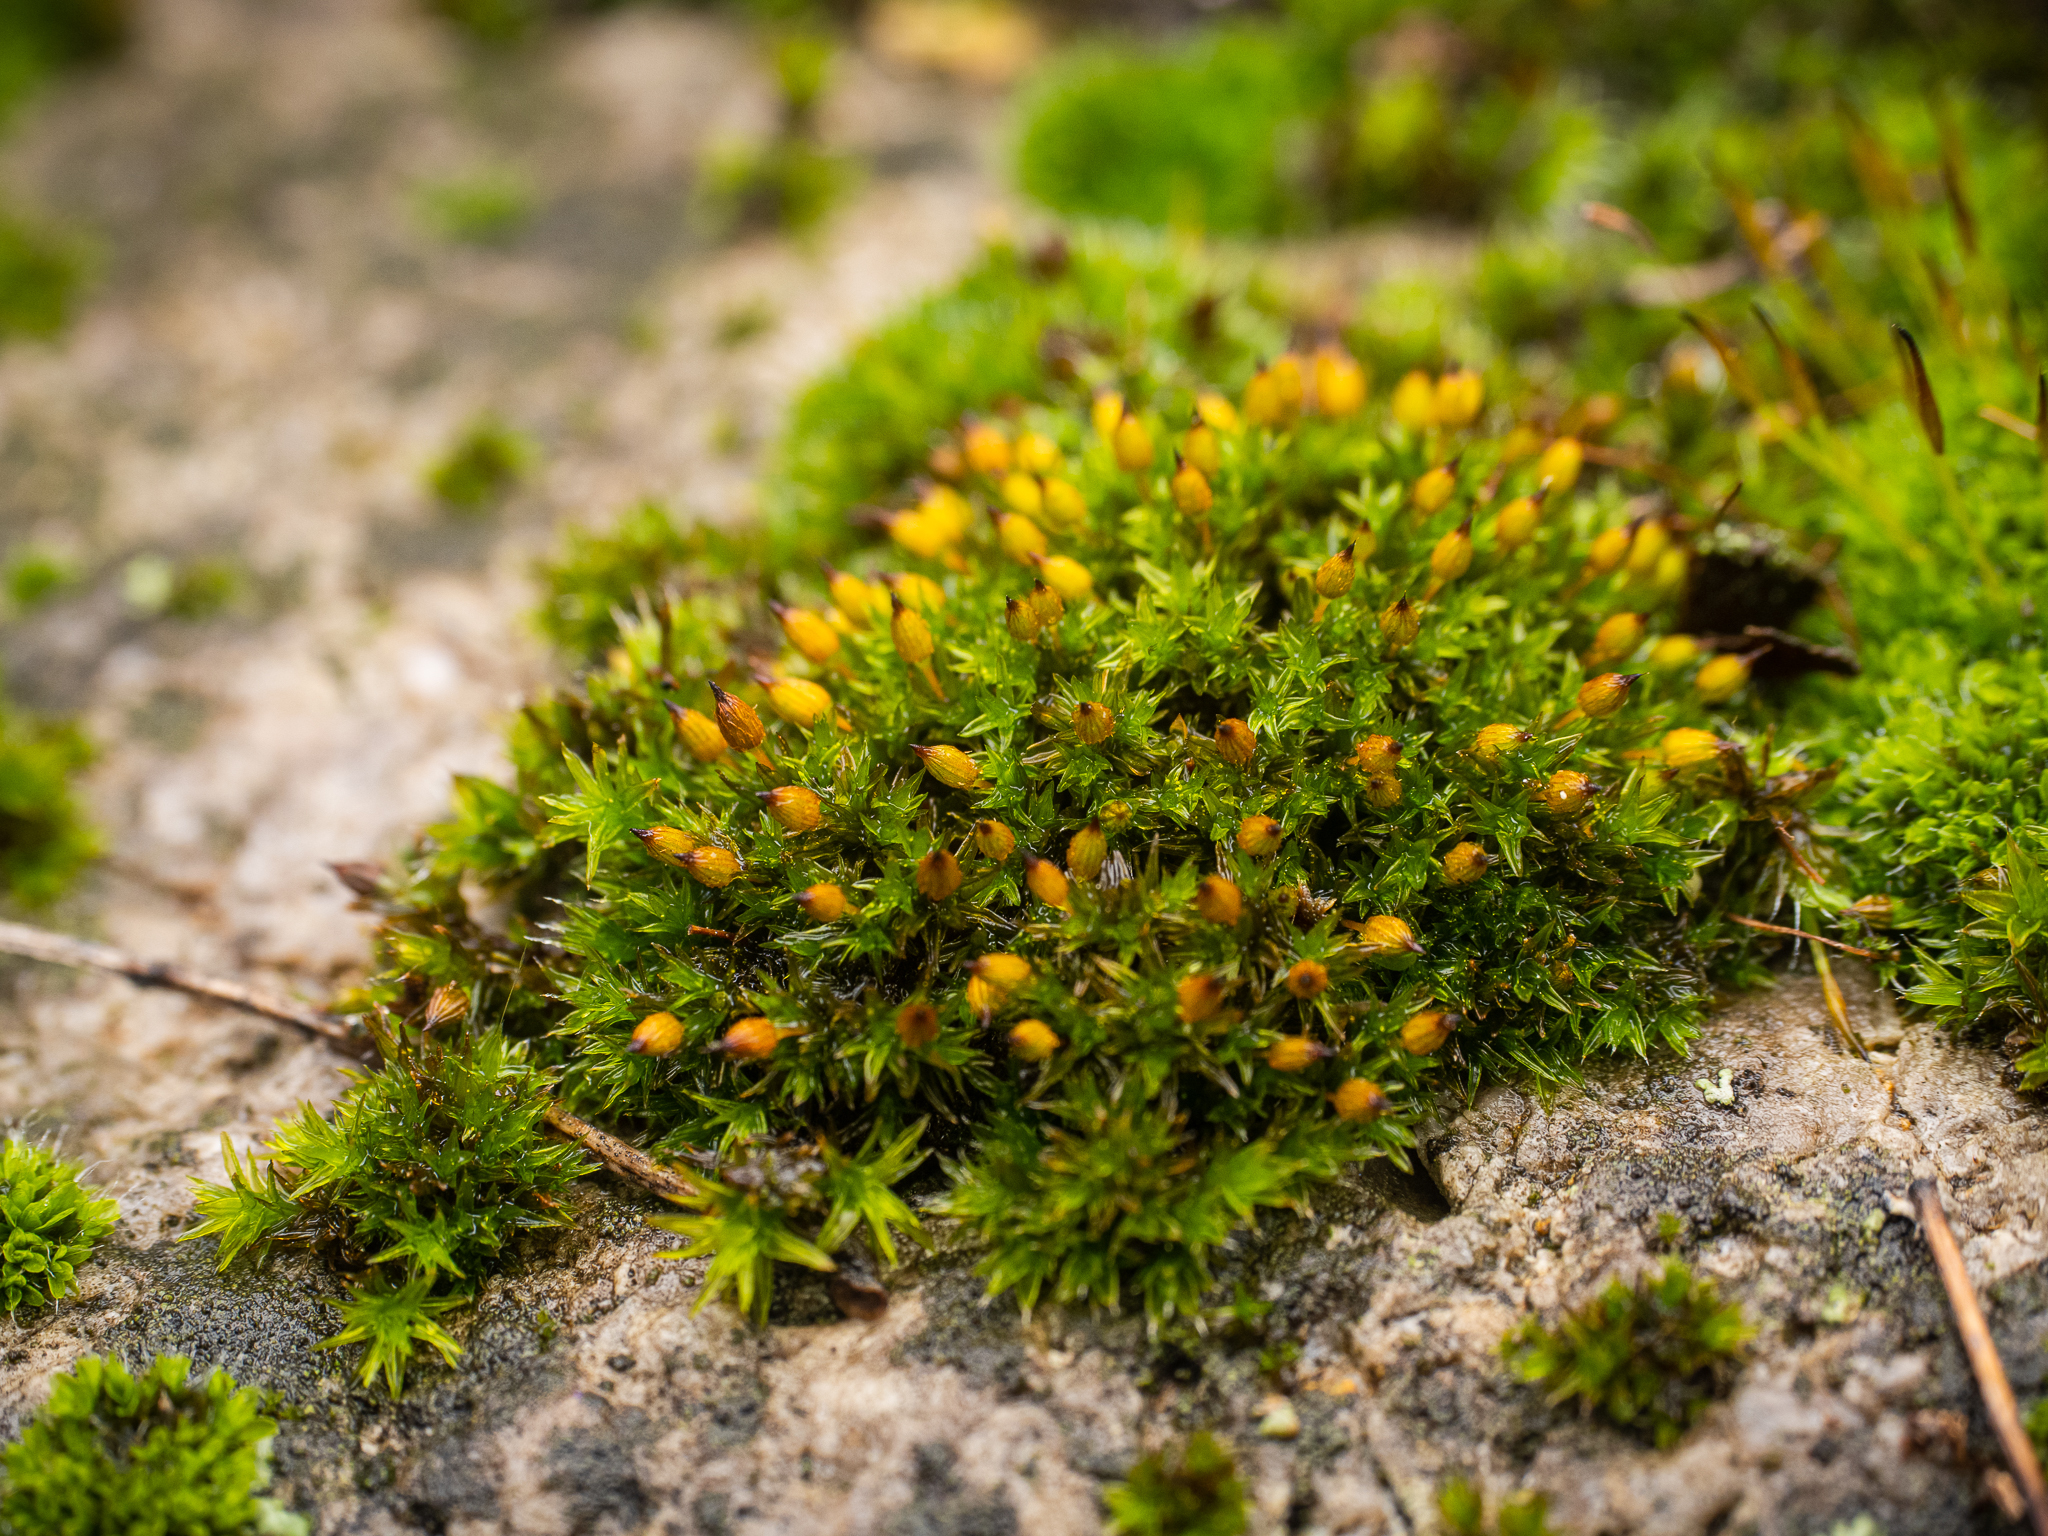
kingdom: Plantae
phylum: Bryophyta
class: Bryopsida
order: Orthotrichales
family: Orthotrichaceae
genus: Orthotrichum
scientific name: Orthotrichum anomalum
